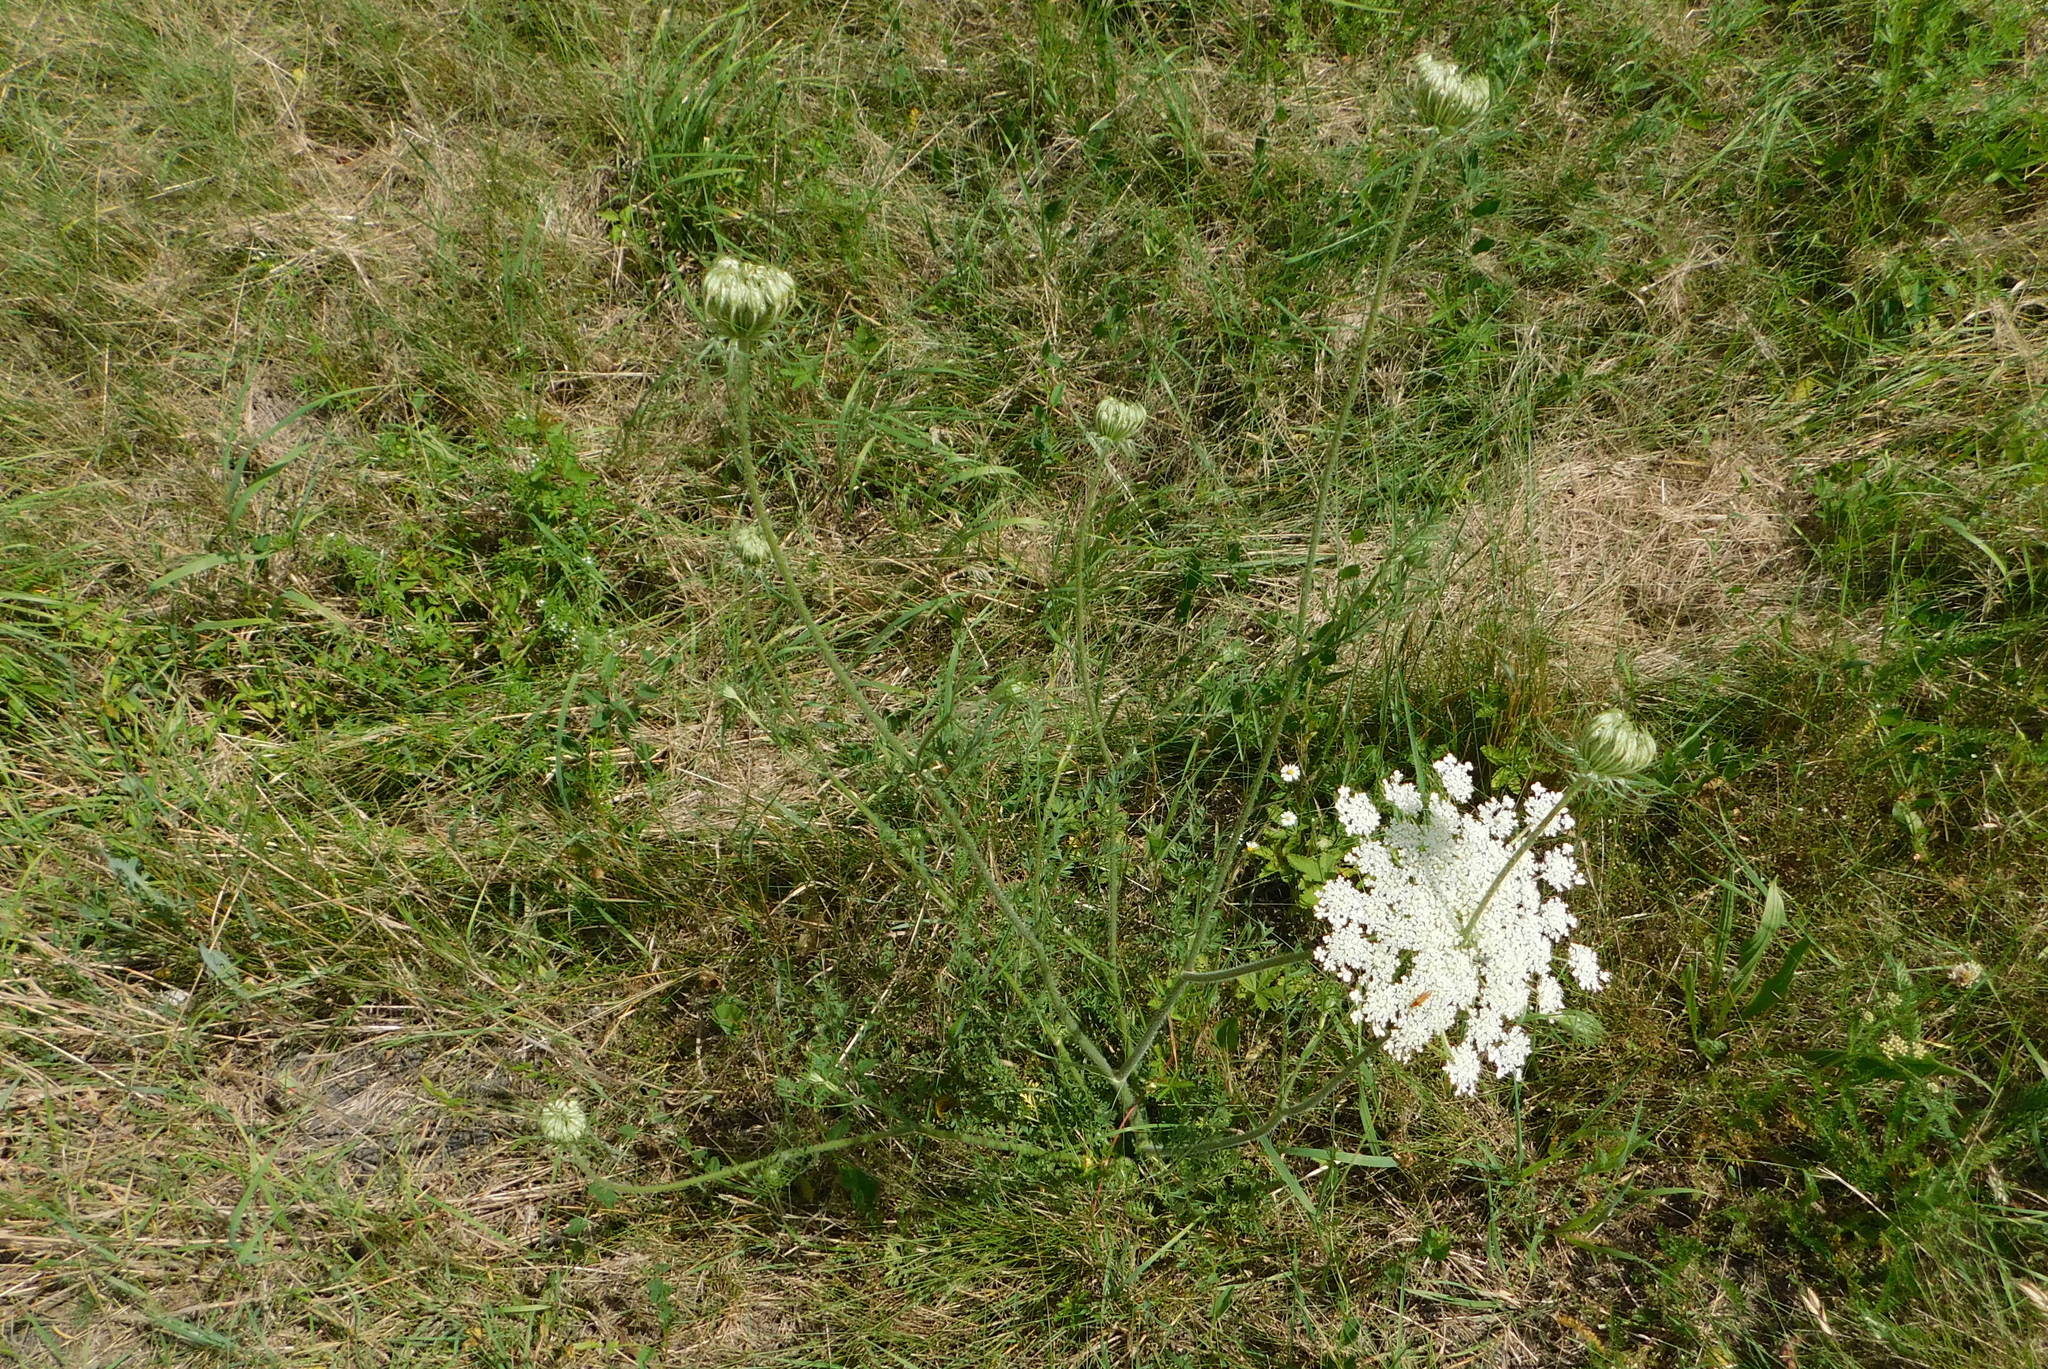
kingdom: Plantae
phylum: Tracheophyta
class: Magnoliopsida
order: Apiales
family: Apiaceae
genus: Daucus
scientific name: Daucus carota
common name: Wild carrot
